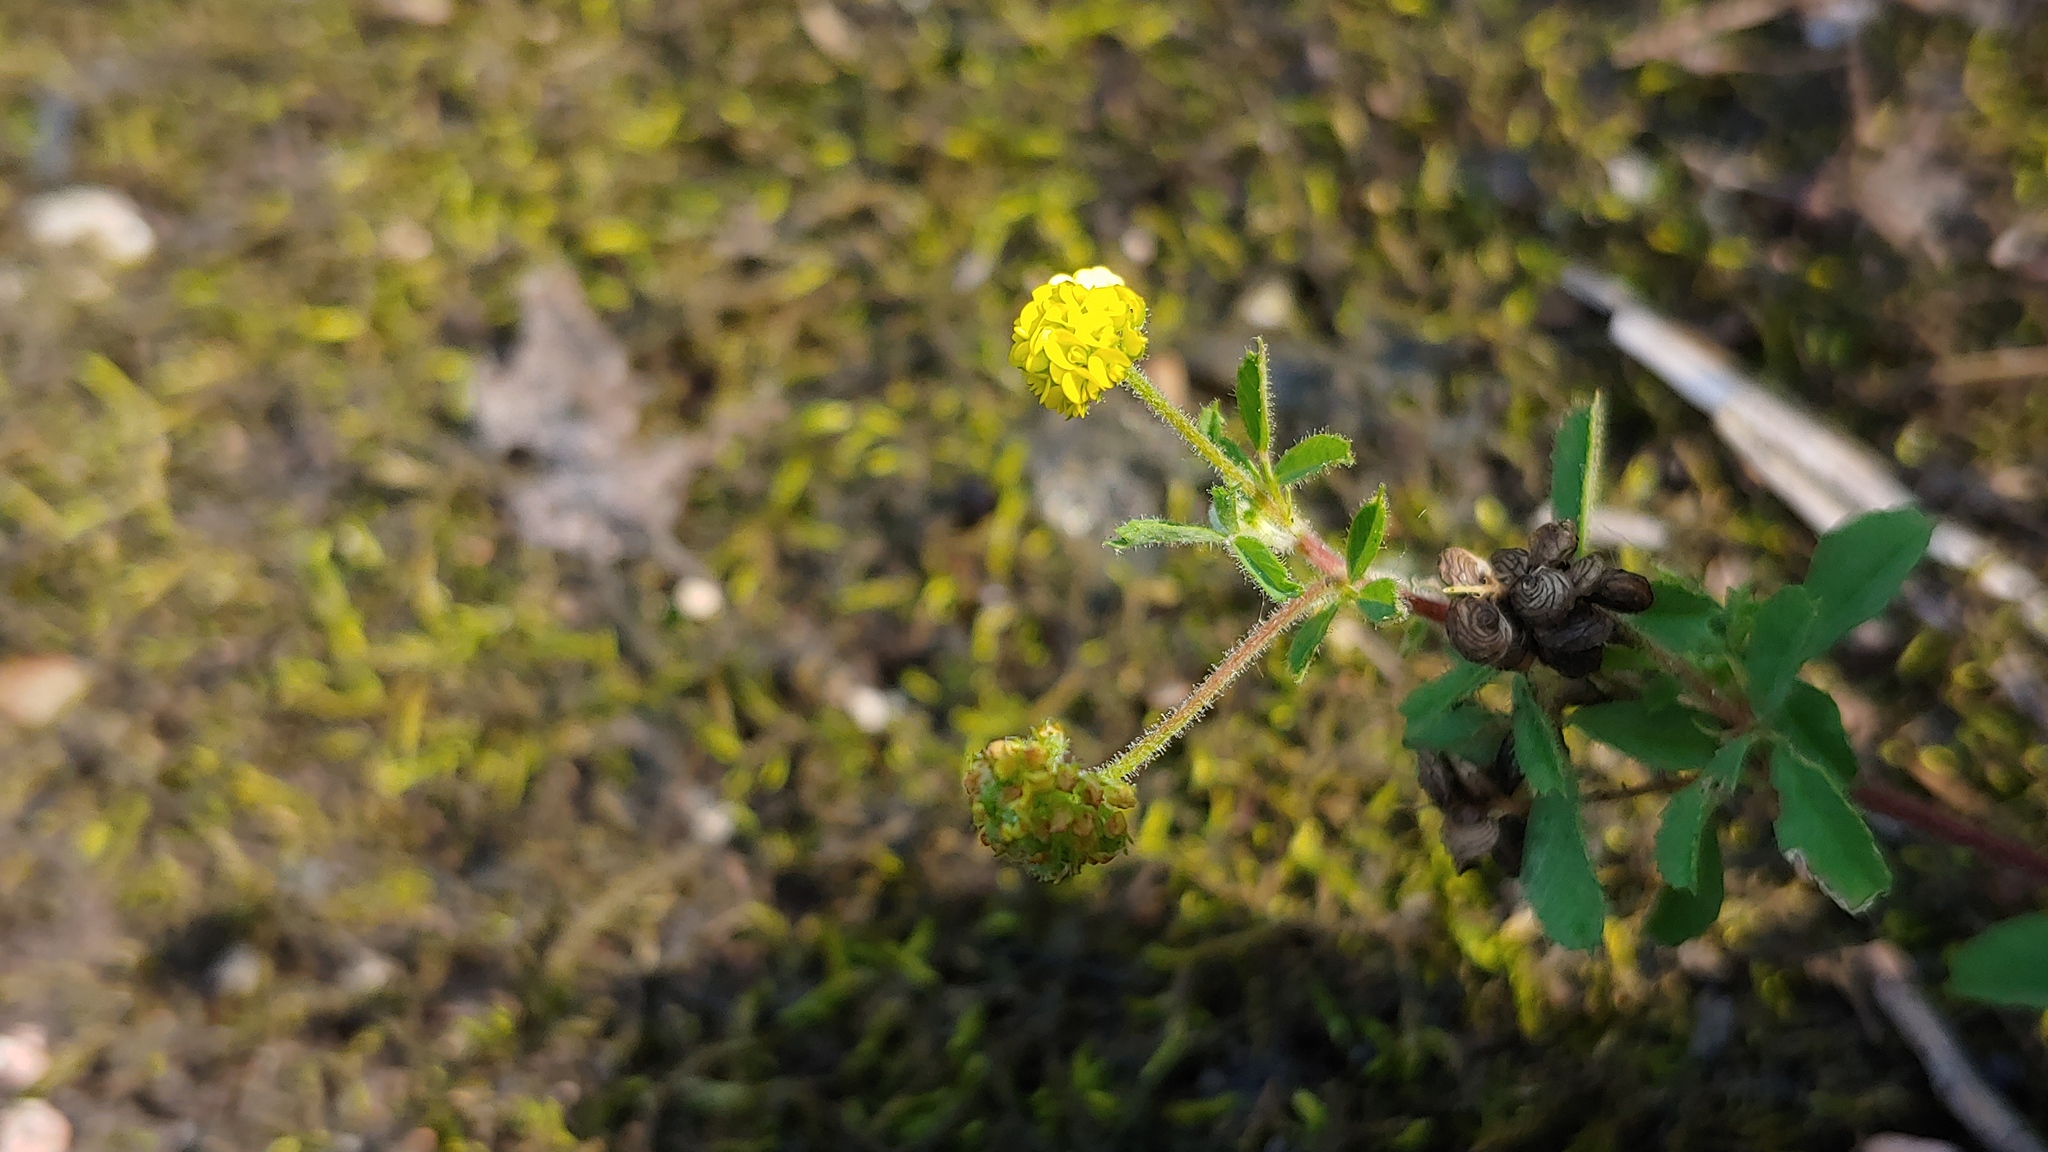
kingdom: Plantae
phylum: Tracheophyta
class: Magnoliopsida
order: Fabales
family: Fabaceae
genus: Medicago
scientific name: Medicago lupulina
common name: Black medick
